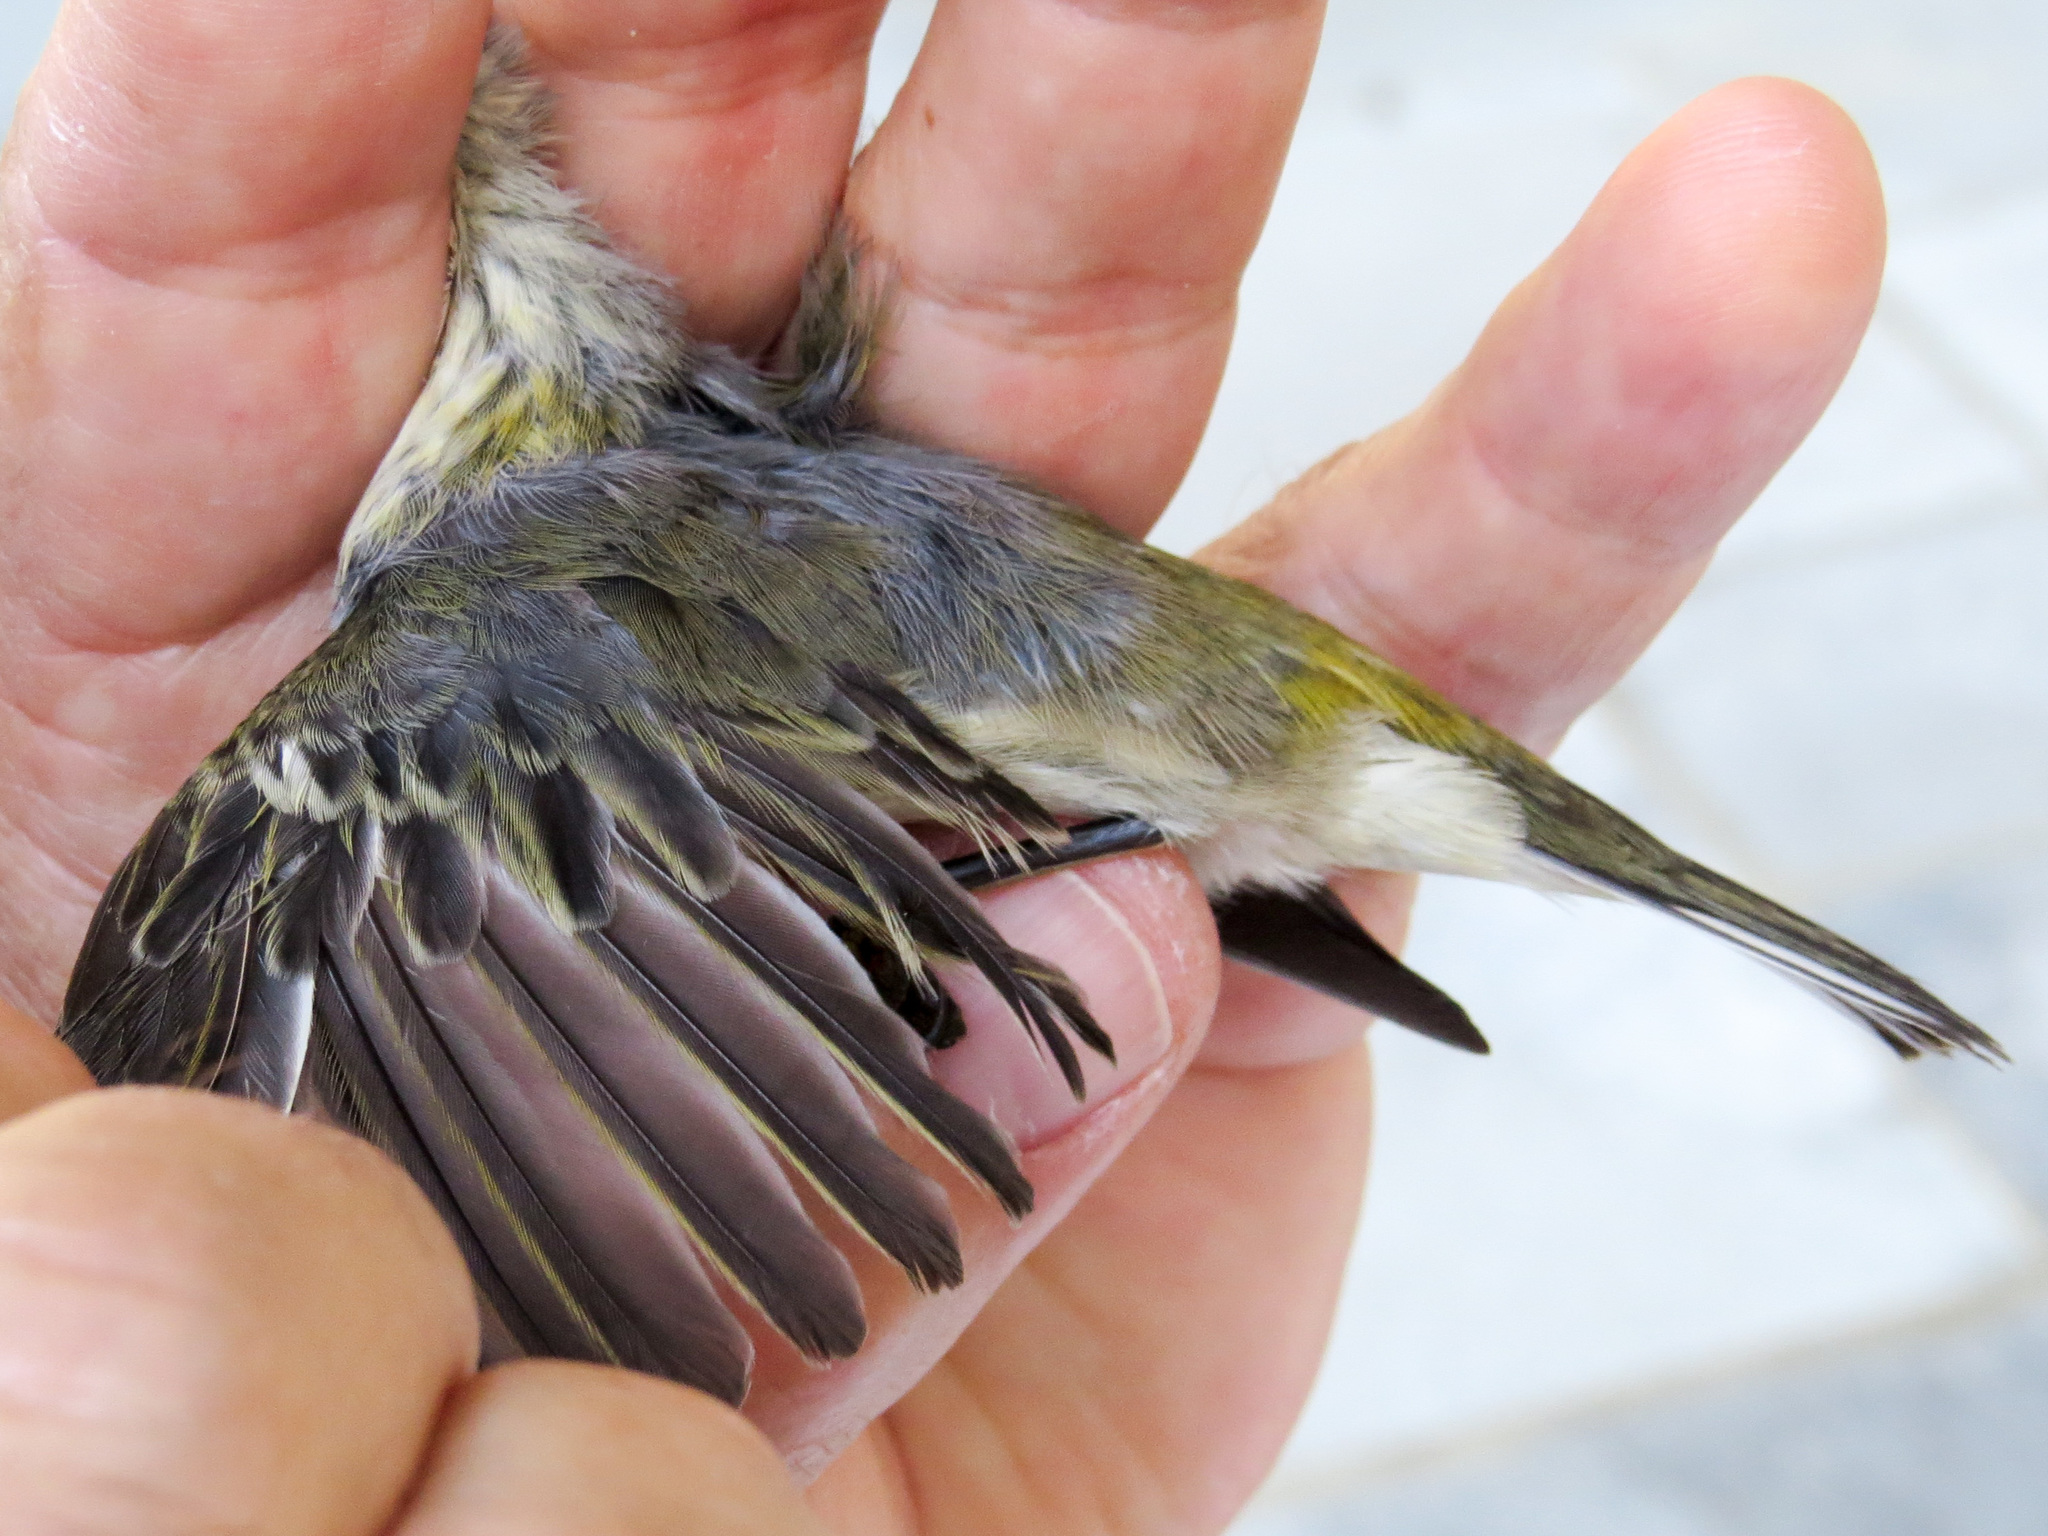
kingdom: Animalia
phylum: Chordata
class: Aves
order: Passeriformes
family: Parulidae
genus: Setophaga
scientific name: Setophaga tigrina
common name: Cape may warbler
